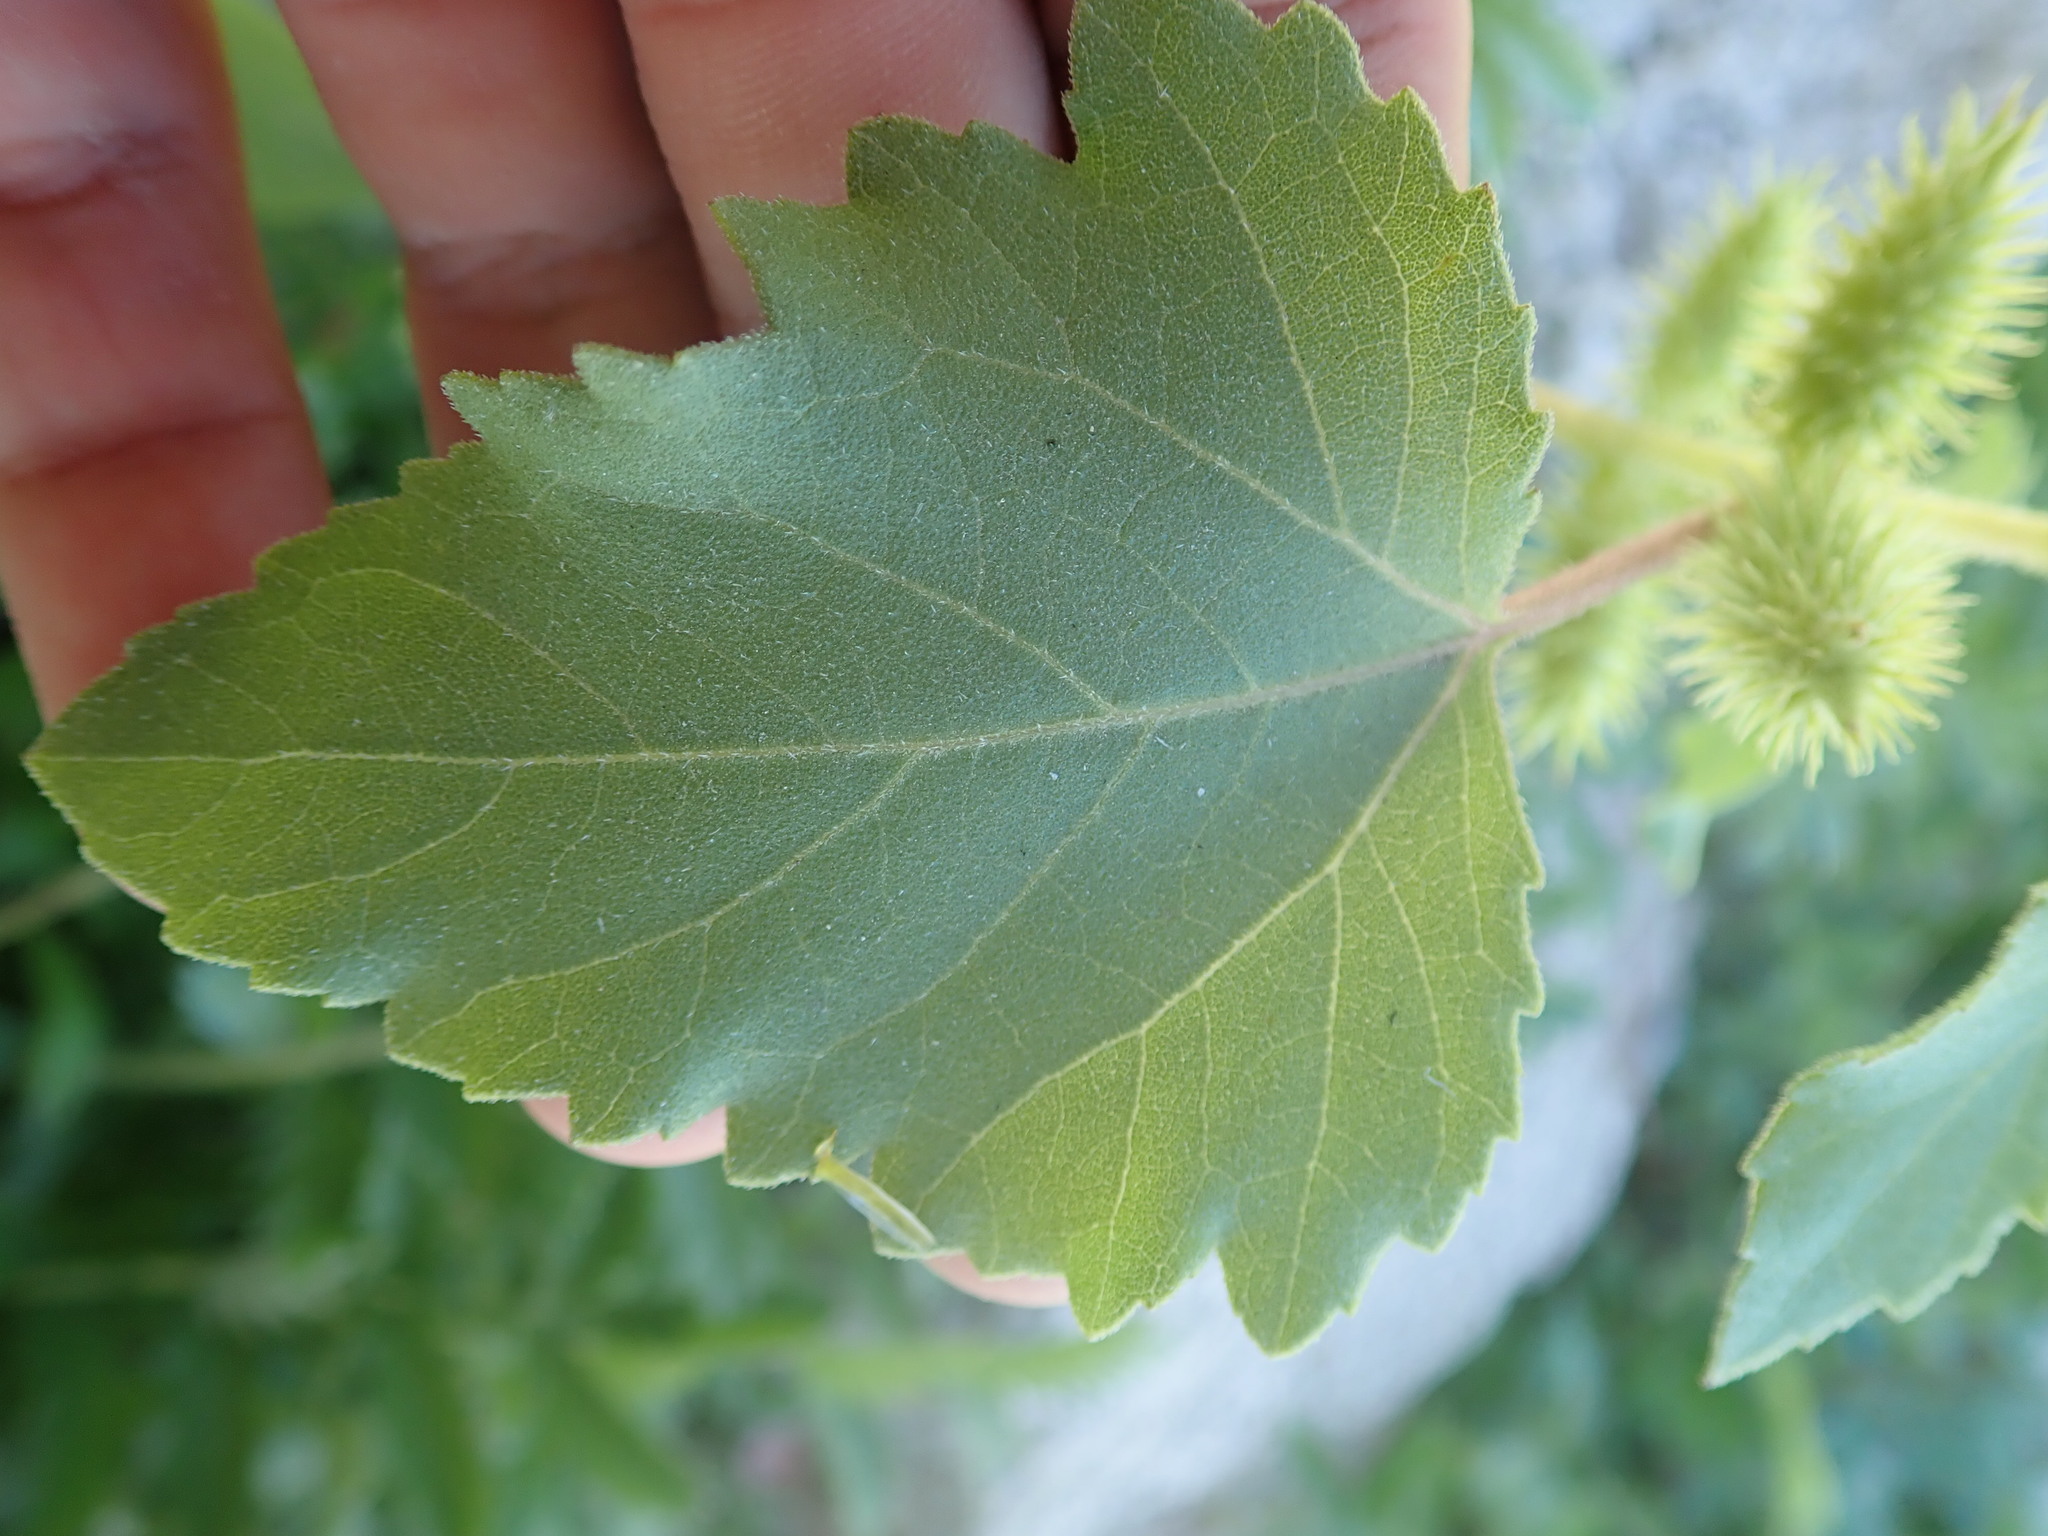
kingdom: Plantae
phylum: Tracheophyta
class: Magnoliopsida
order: Asterales
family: Asteraceae
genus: Xanthium
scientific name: Xanthium strumarium
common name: Rough cocklebur
